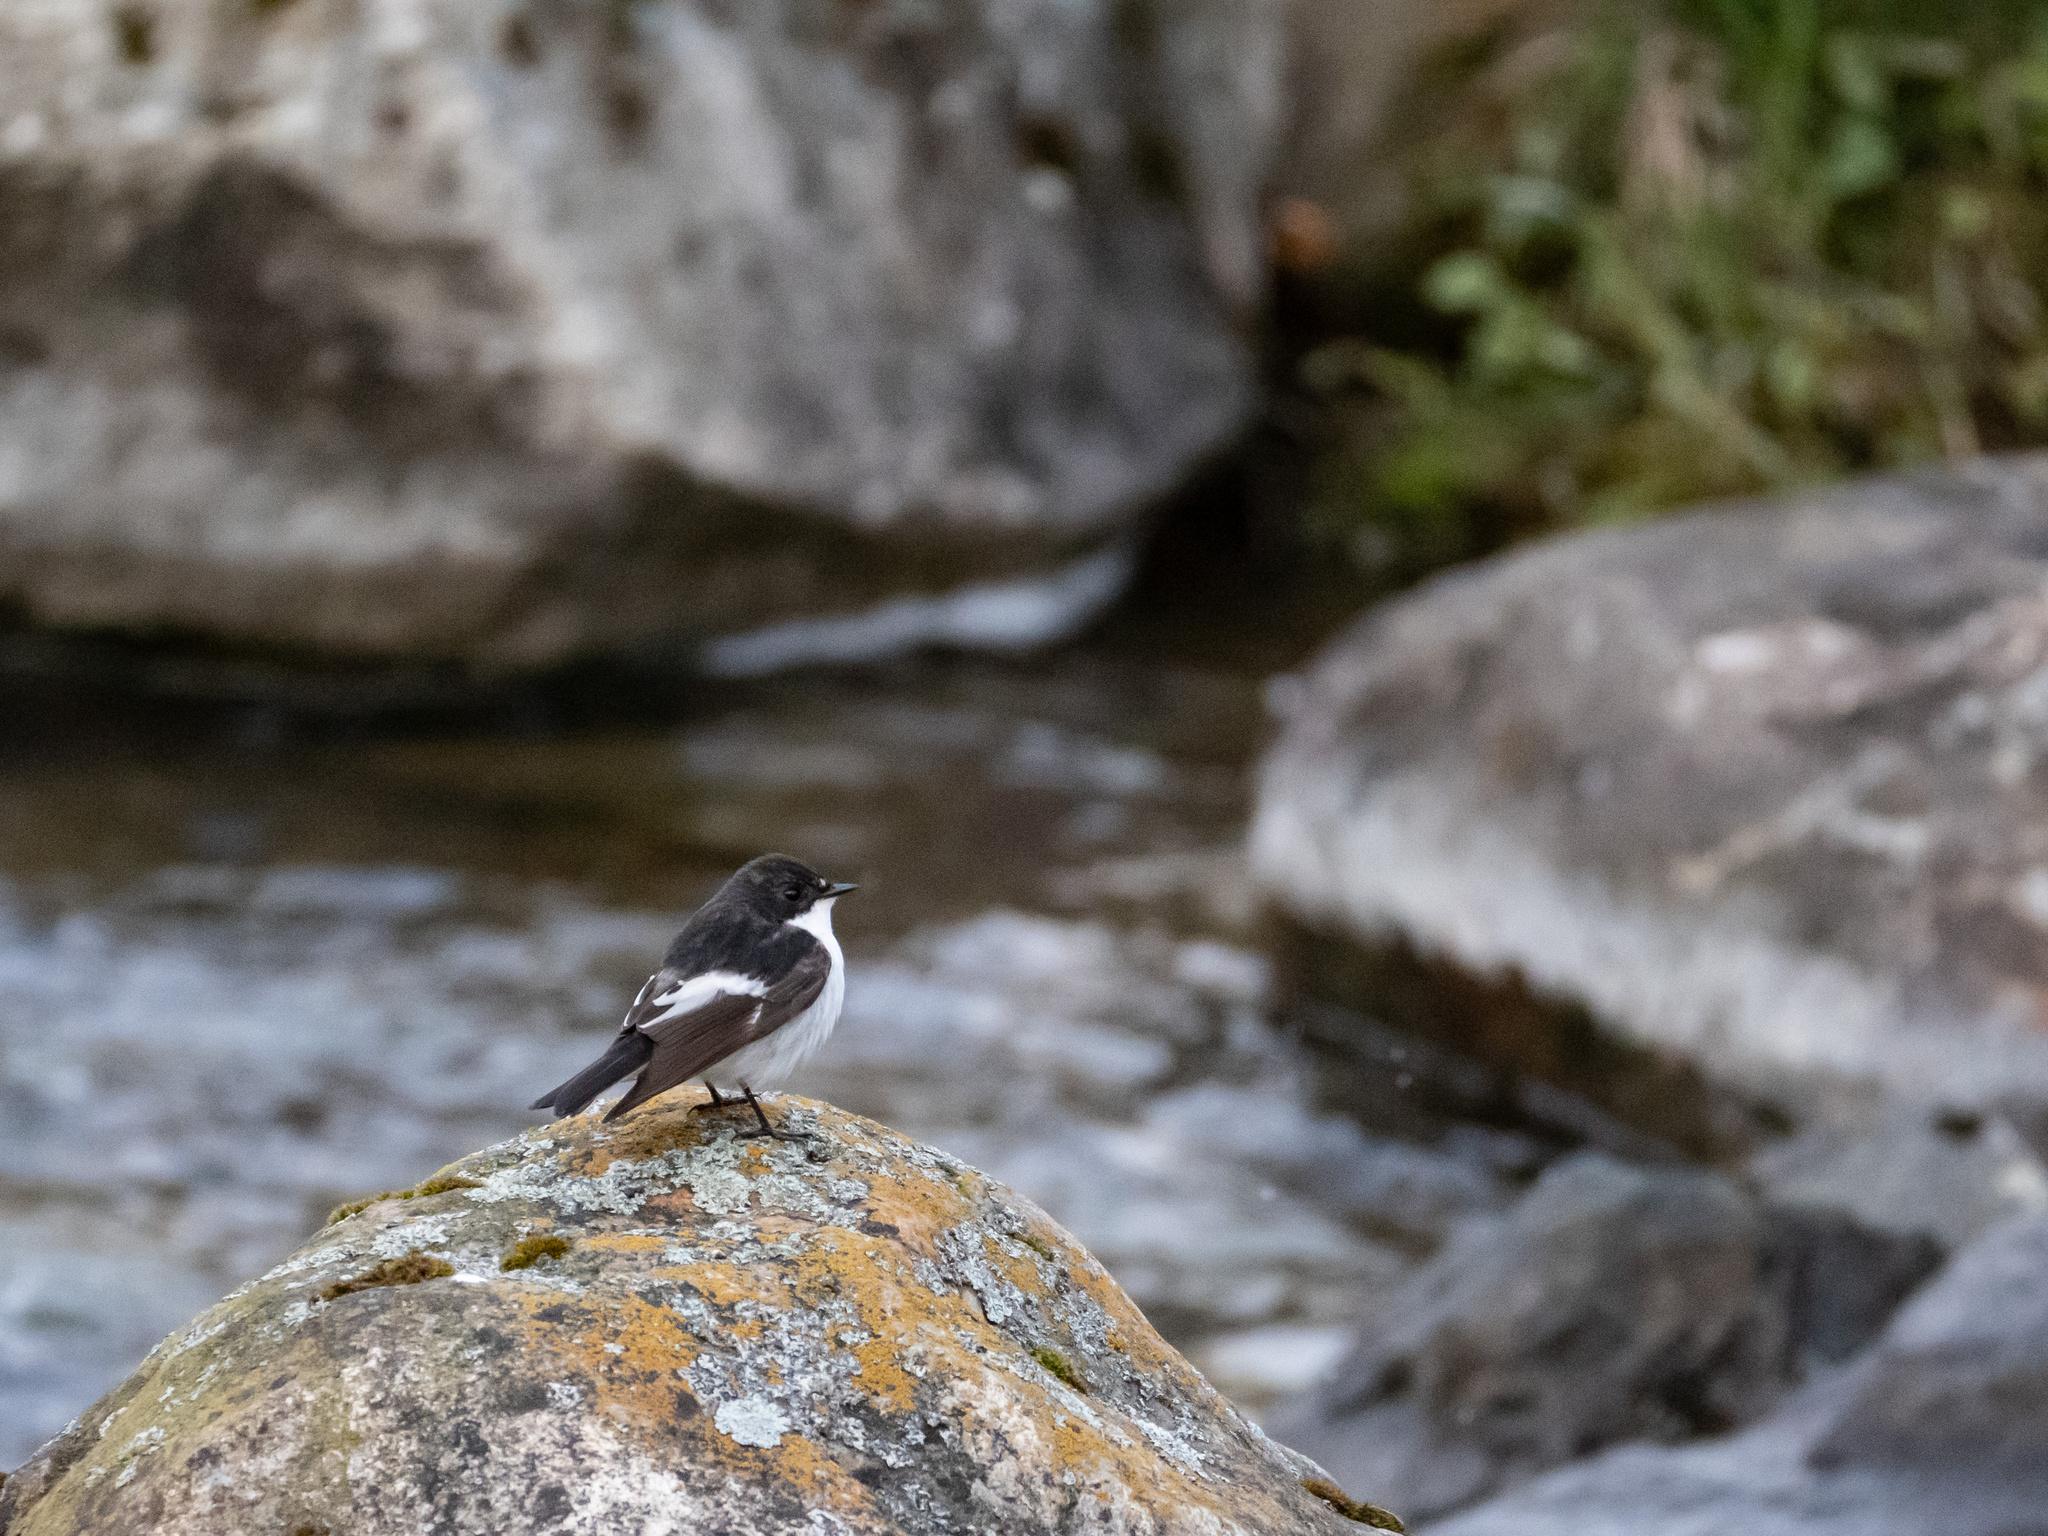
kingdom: Animalia
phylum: Chordata
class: Aves
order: Passeriformes
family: Muscicapidae
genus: Ficedula
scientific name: Ficedula hypoleuca
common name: European pied flycatcher
